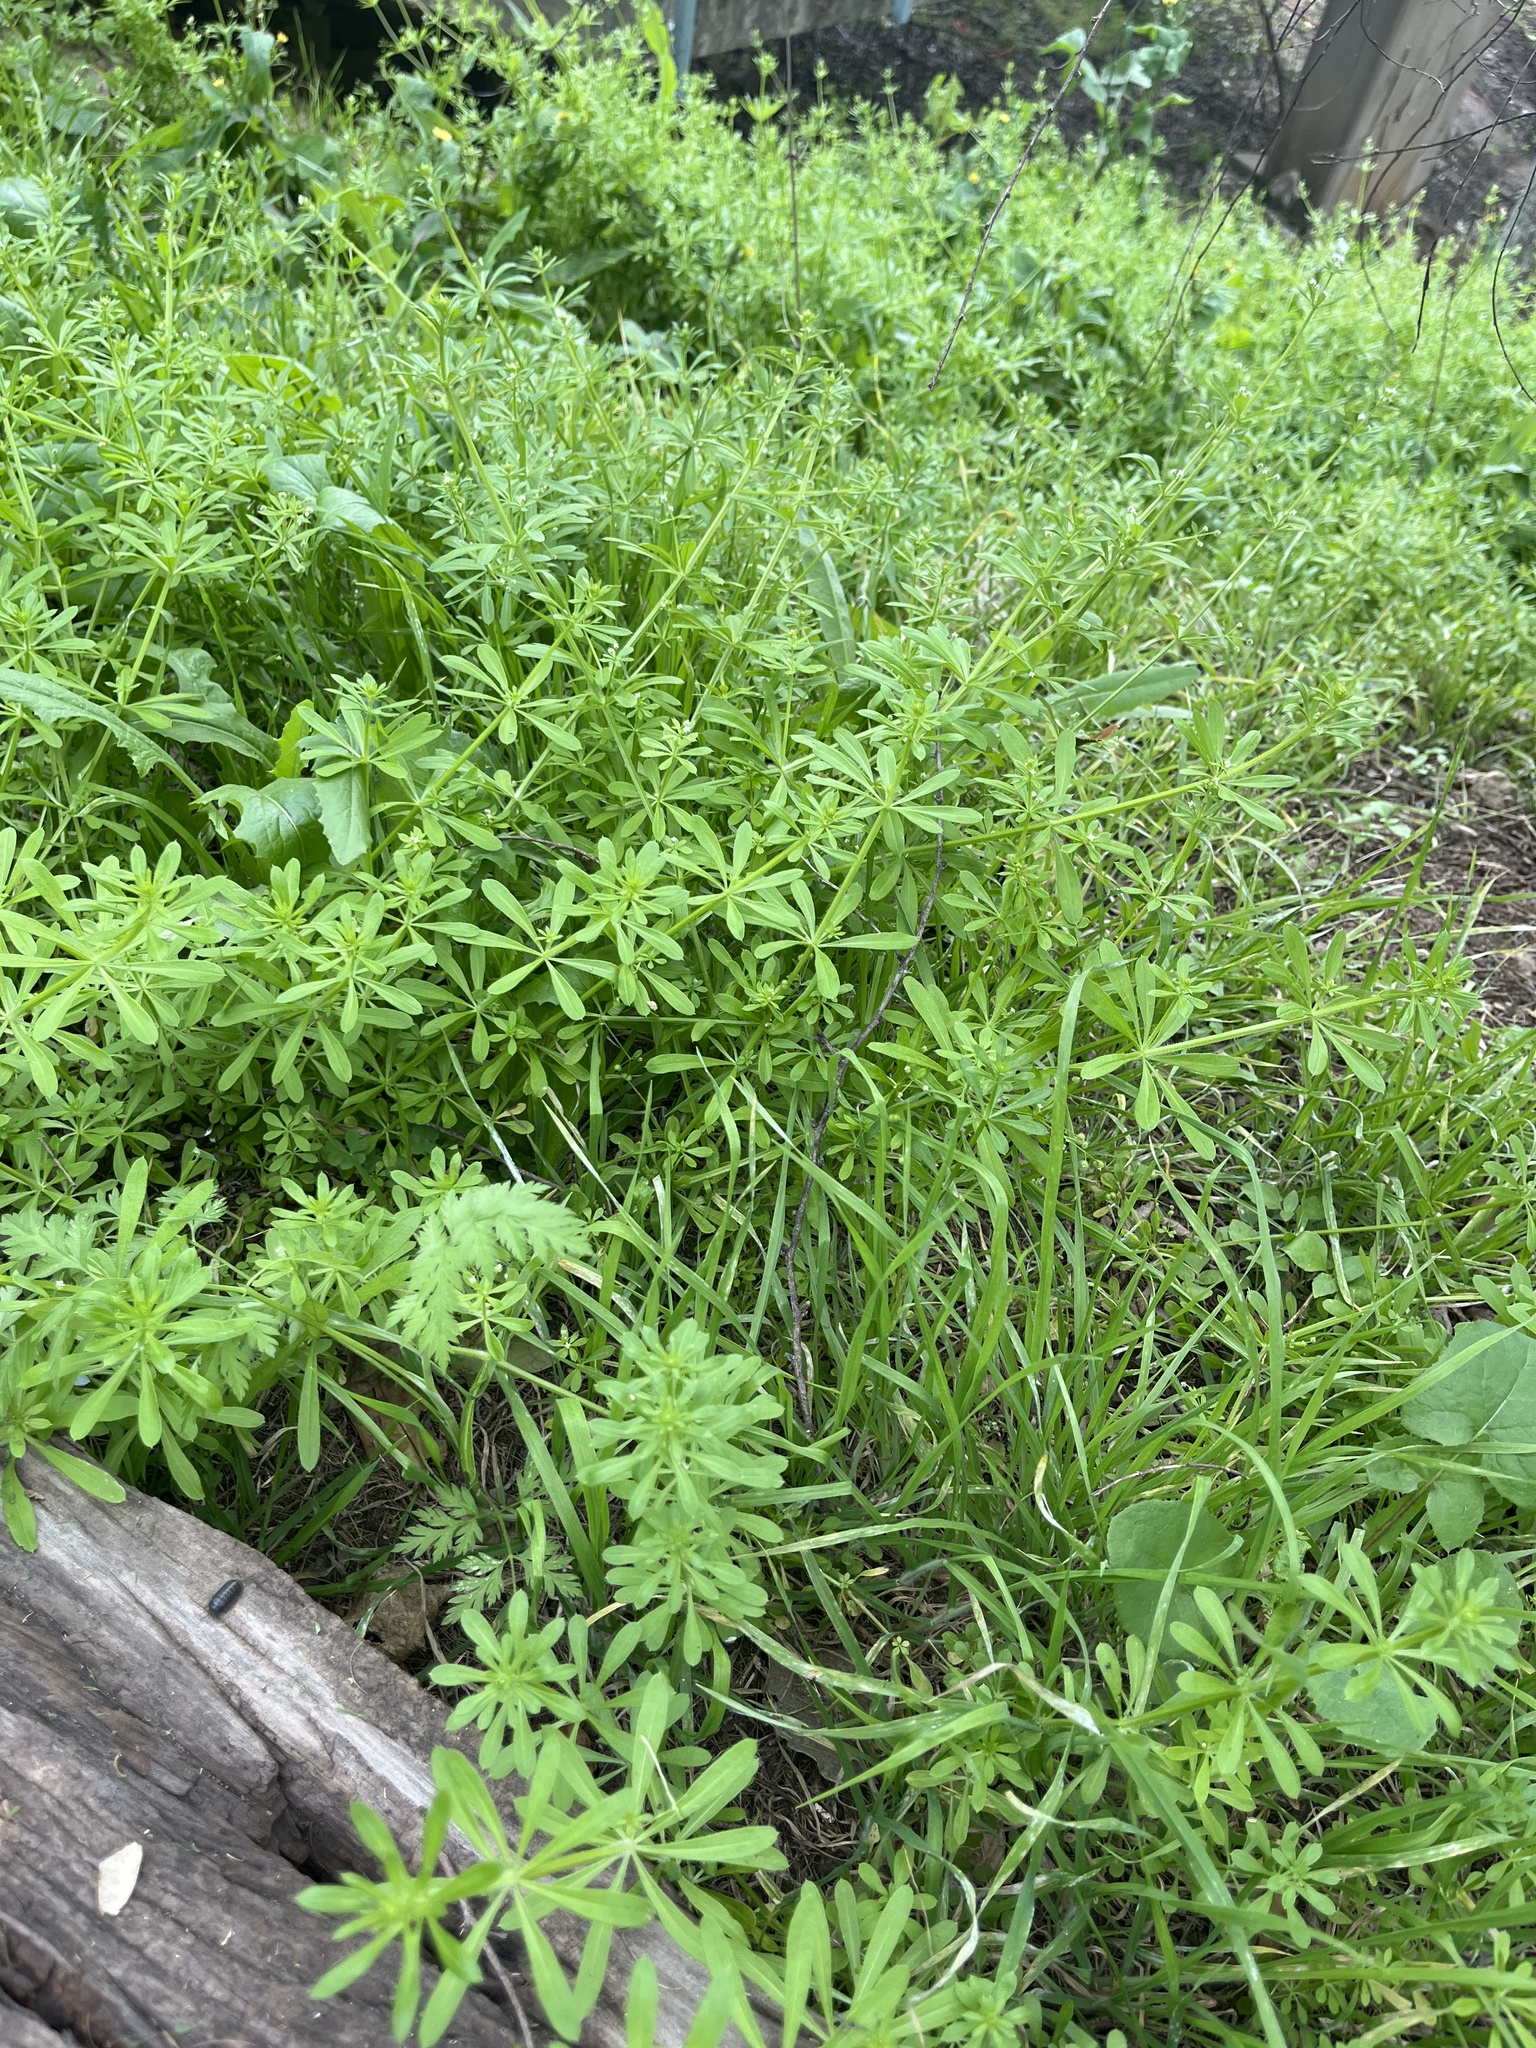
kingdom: Plantae
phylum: Tracheophyta
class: Magnoliopsida
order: Gentianales
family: Rubiaceae
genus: Galium
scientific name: Galium aparine
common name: Cleavers
